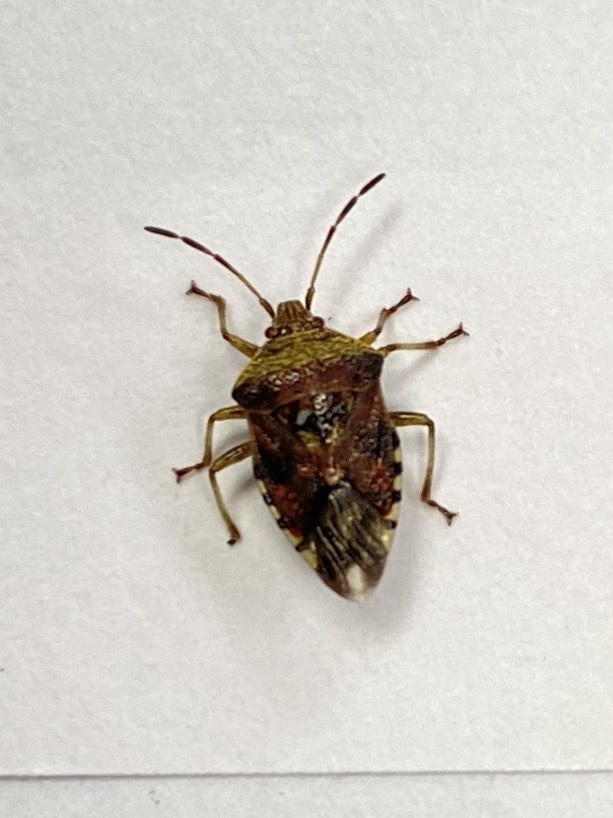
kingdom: Animalia
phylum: Arthropoda
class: Insecta
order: Hemiptera
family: Acanthosomatidae
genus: Elasmucha
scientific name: Elasmucha grisea
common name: Parent bug
